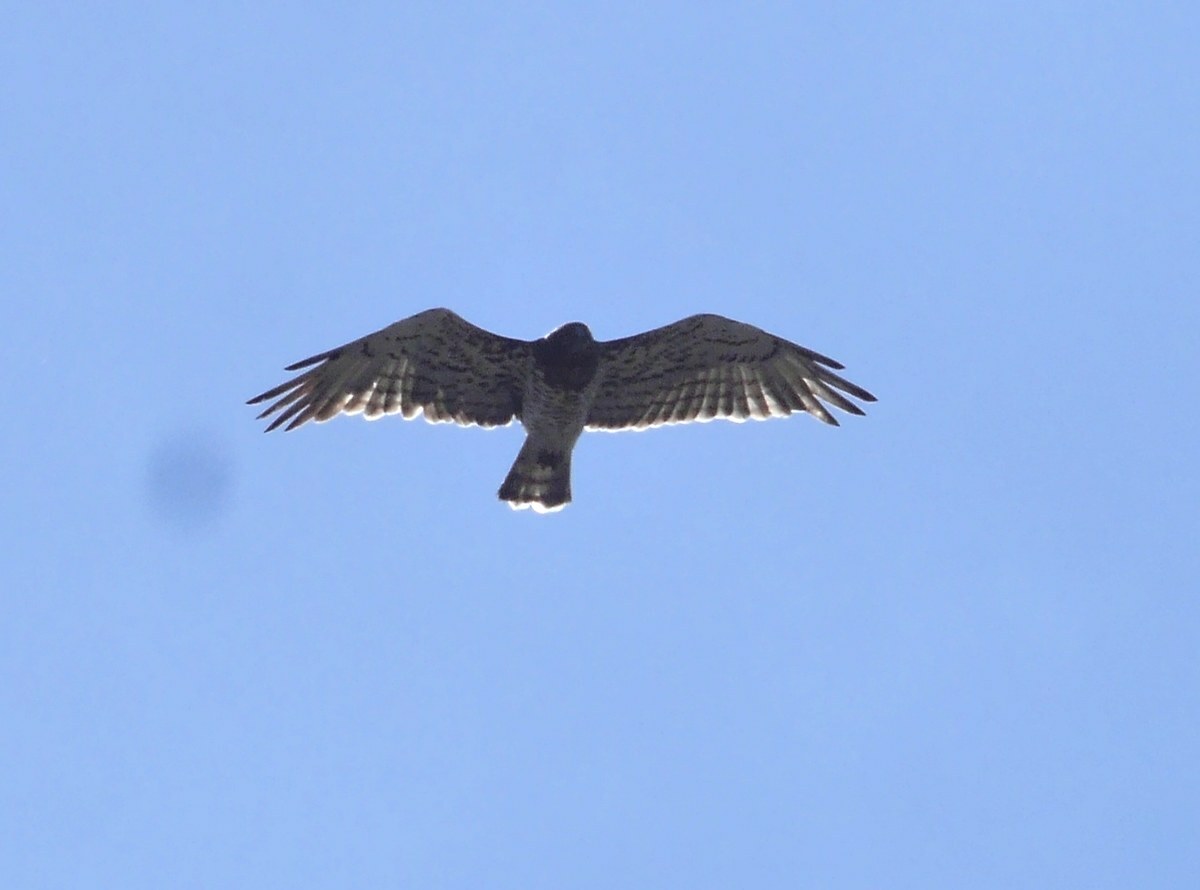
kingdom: Animalia
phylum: Chordata
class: Aves
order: Accipitriformes
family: Accipitridae
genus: Circaetus
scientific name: Circaetus gallicus
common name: Short-toed snake eagle
